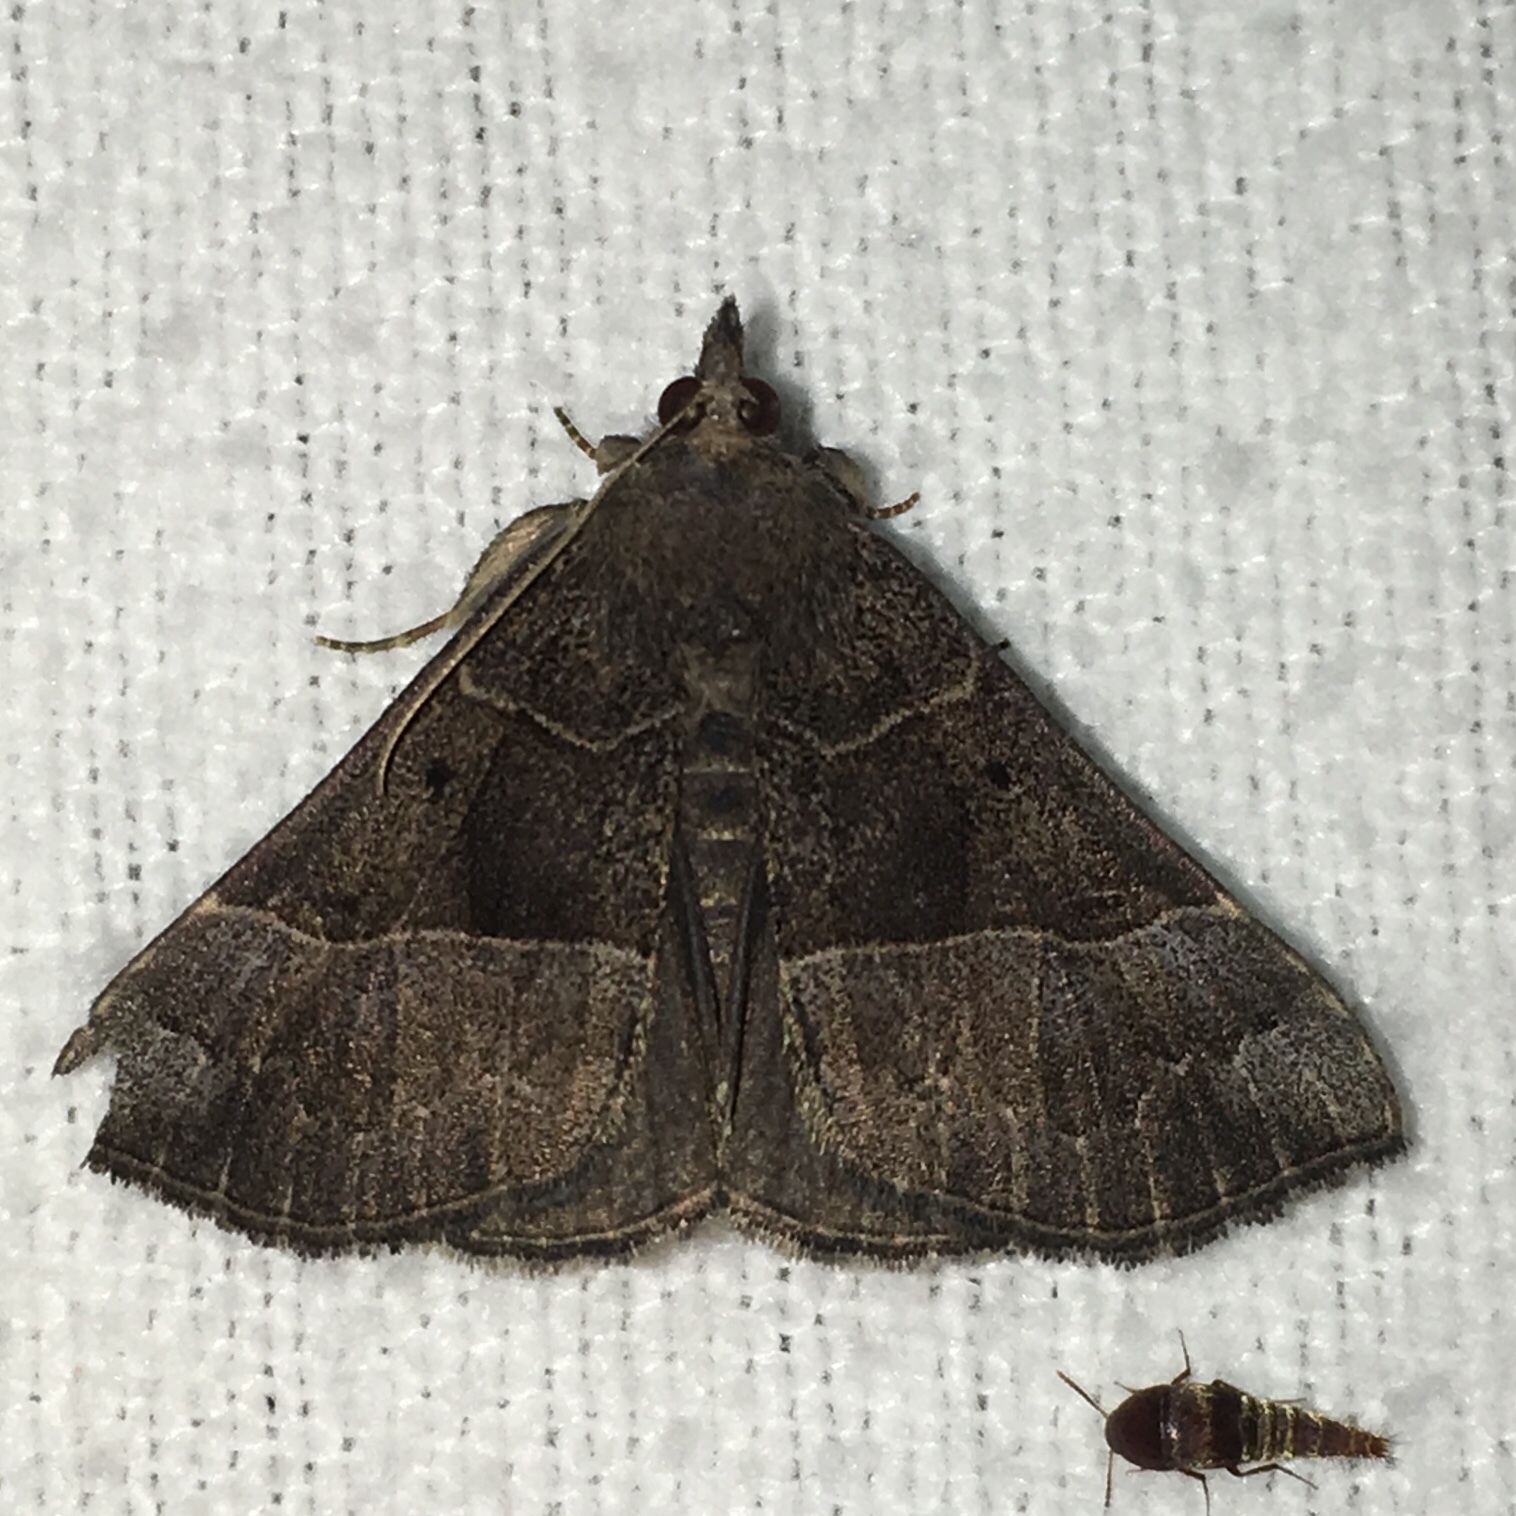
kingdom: Animalia
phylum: Arthropoda
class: Insecta
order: Lepidoptera
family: Erebidae
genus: Hypena
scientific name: Hypena deceptalis
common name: Deceptive snout
